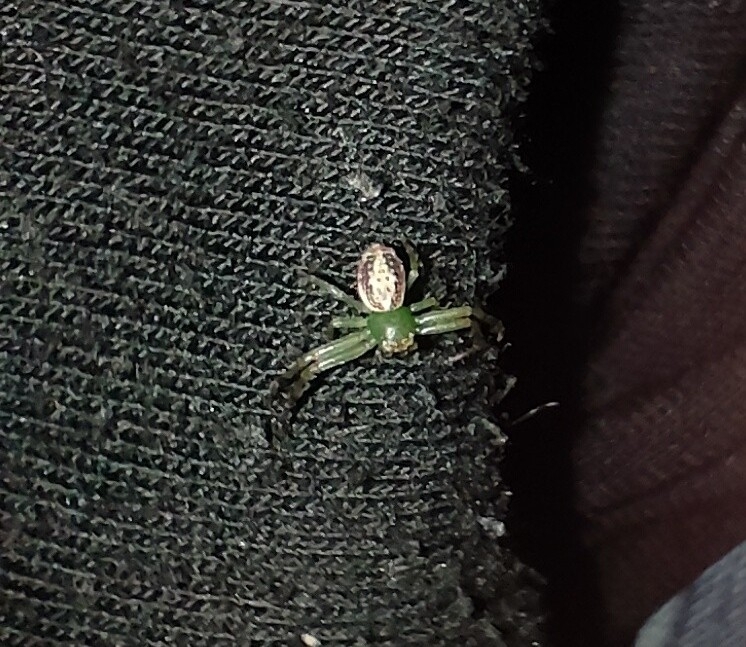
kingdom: Animalia
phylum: Arthropoda
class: Arachnida
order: Araneae
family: Thomisidae
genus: Diaea
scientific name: Diaea ambara
